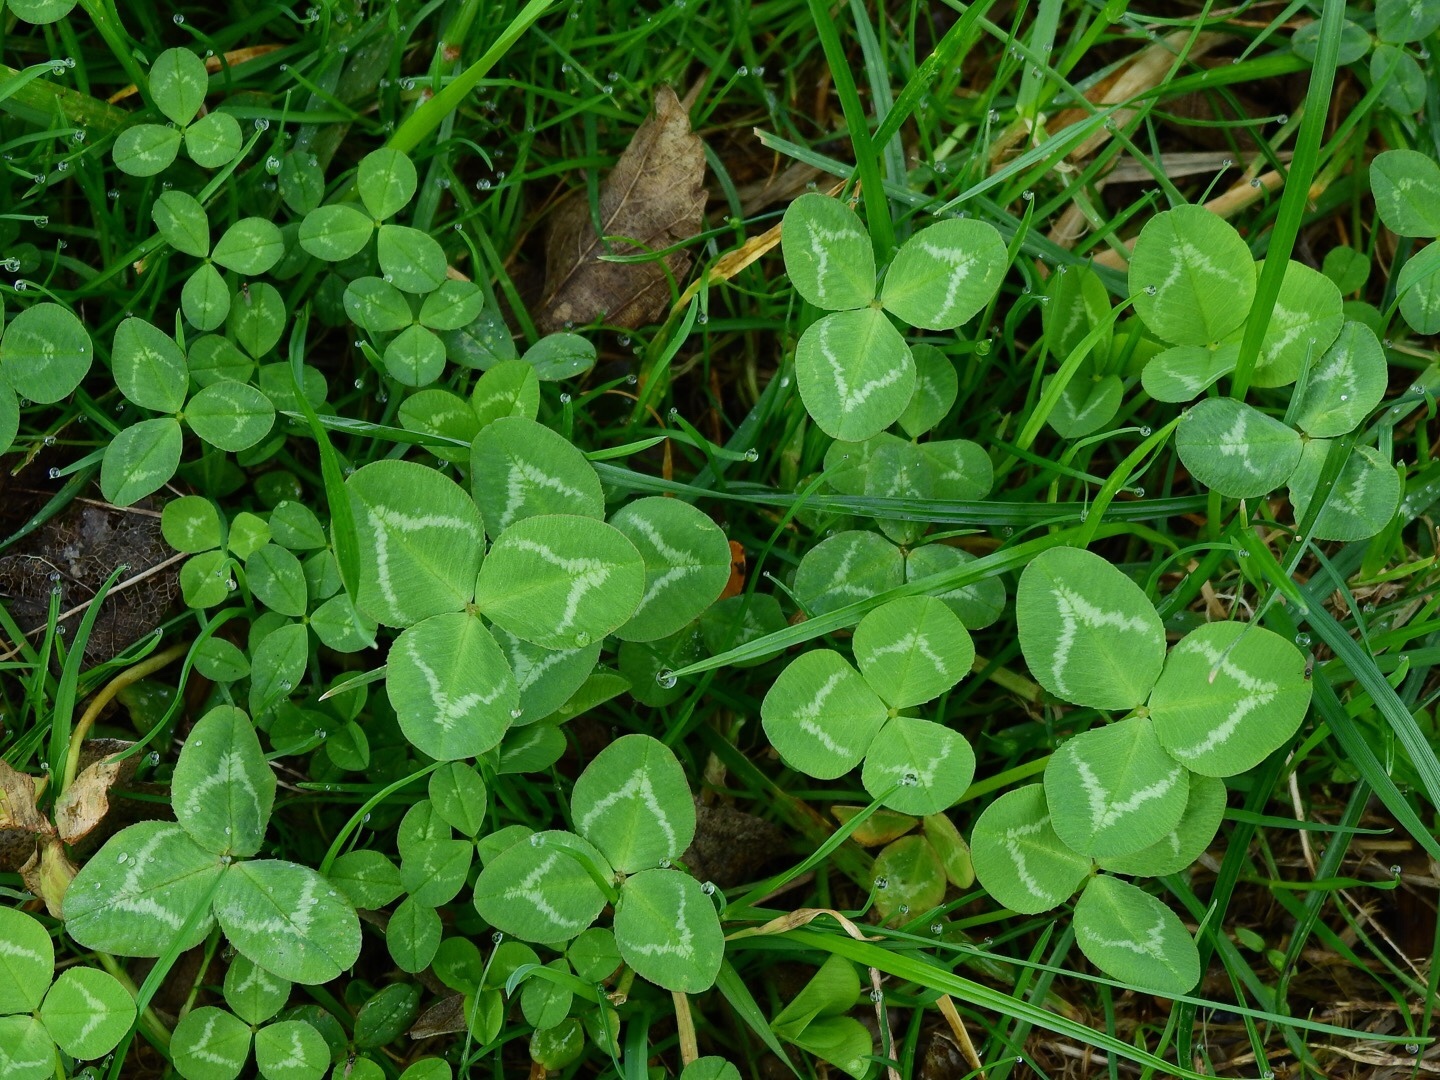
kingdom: Plantae
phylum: Tracheophyta
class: Magnoliopsida
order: Fabales
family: Fabaceae
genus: Trifolium
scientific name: Trifolium repens
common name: White clover
